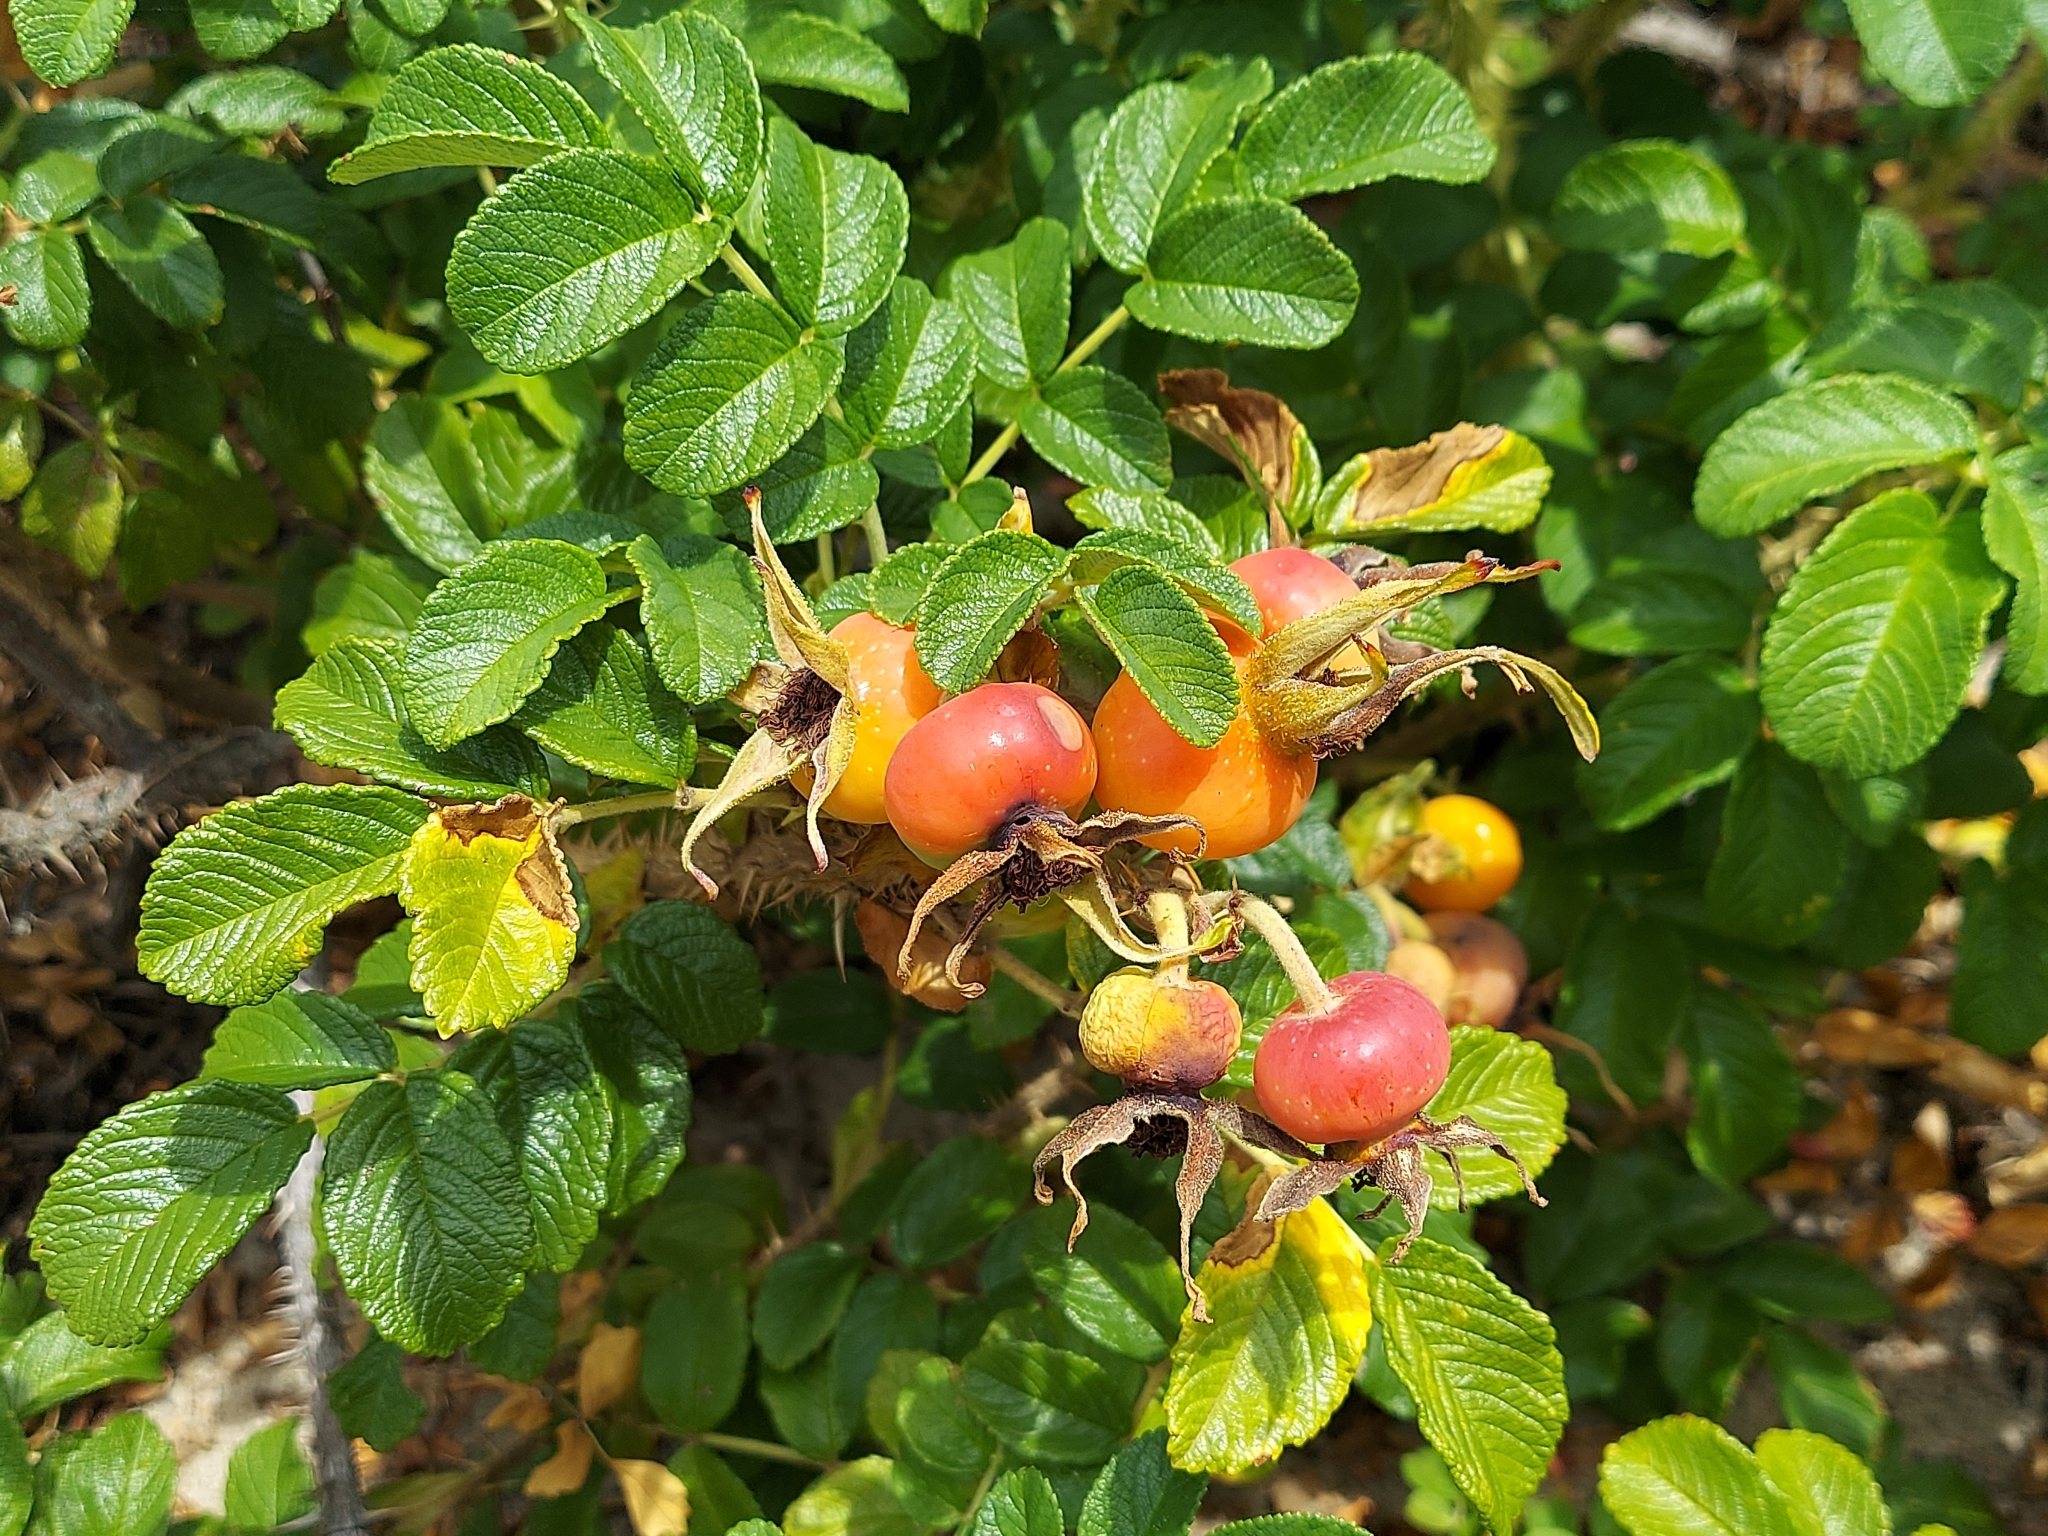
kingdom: Plantae
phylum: Tracheophyta
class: Magnoliopsida
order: Rosales
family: Rosaceae
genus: Rosa
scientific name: Rosa rugosa
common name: Japanese rose
